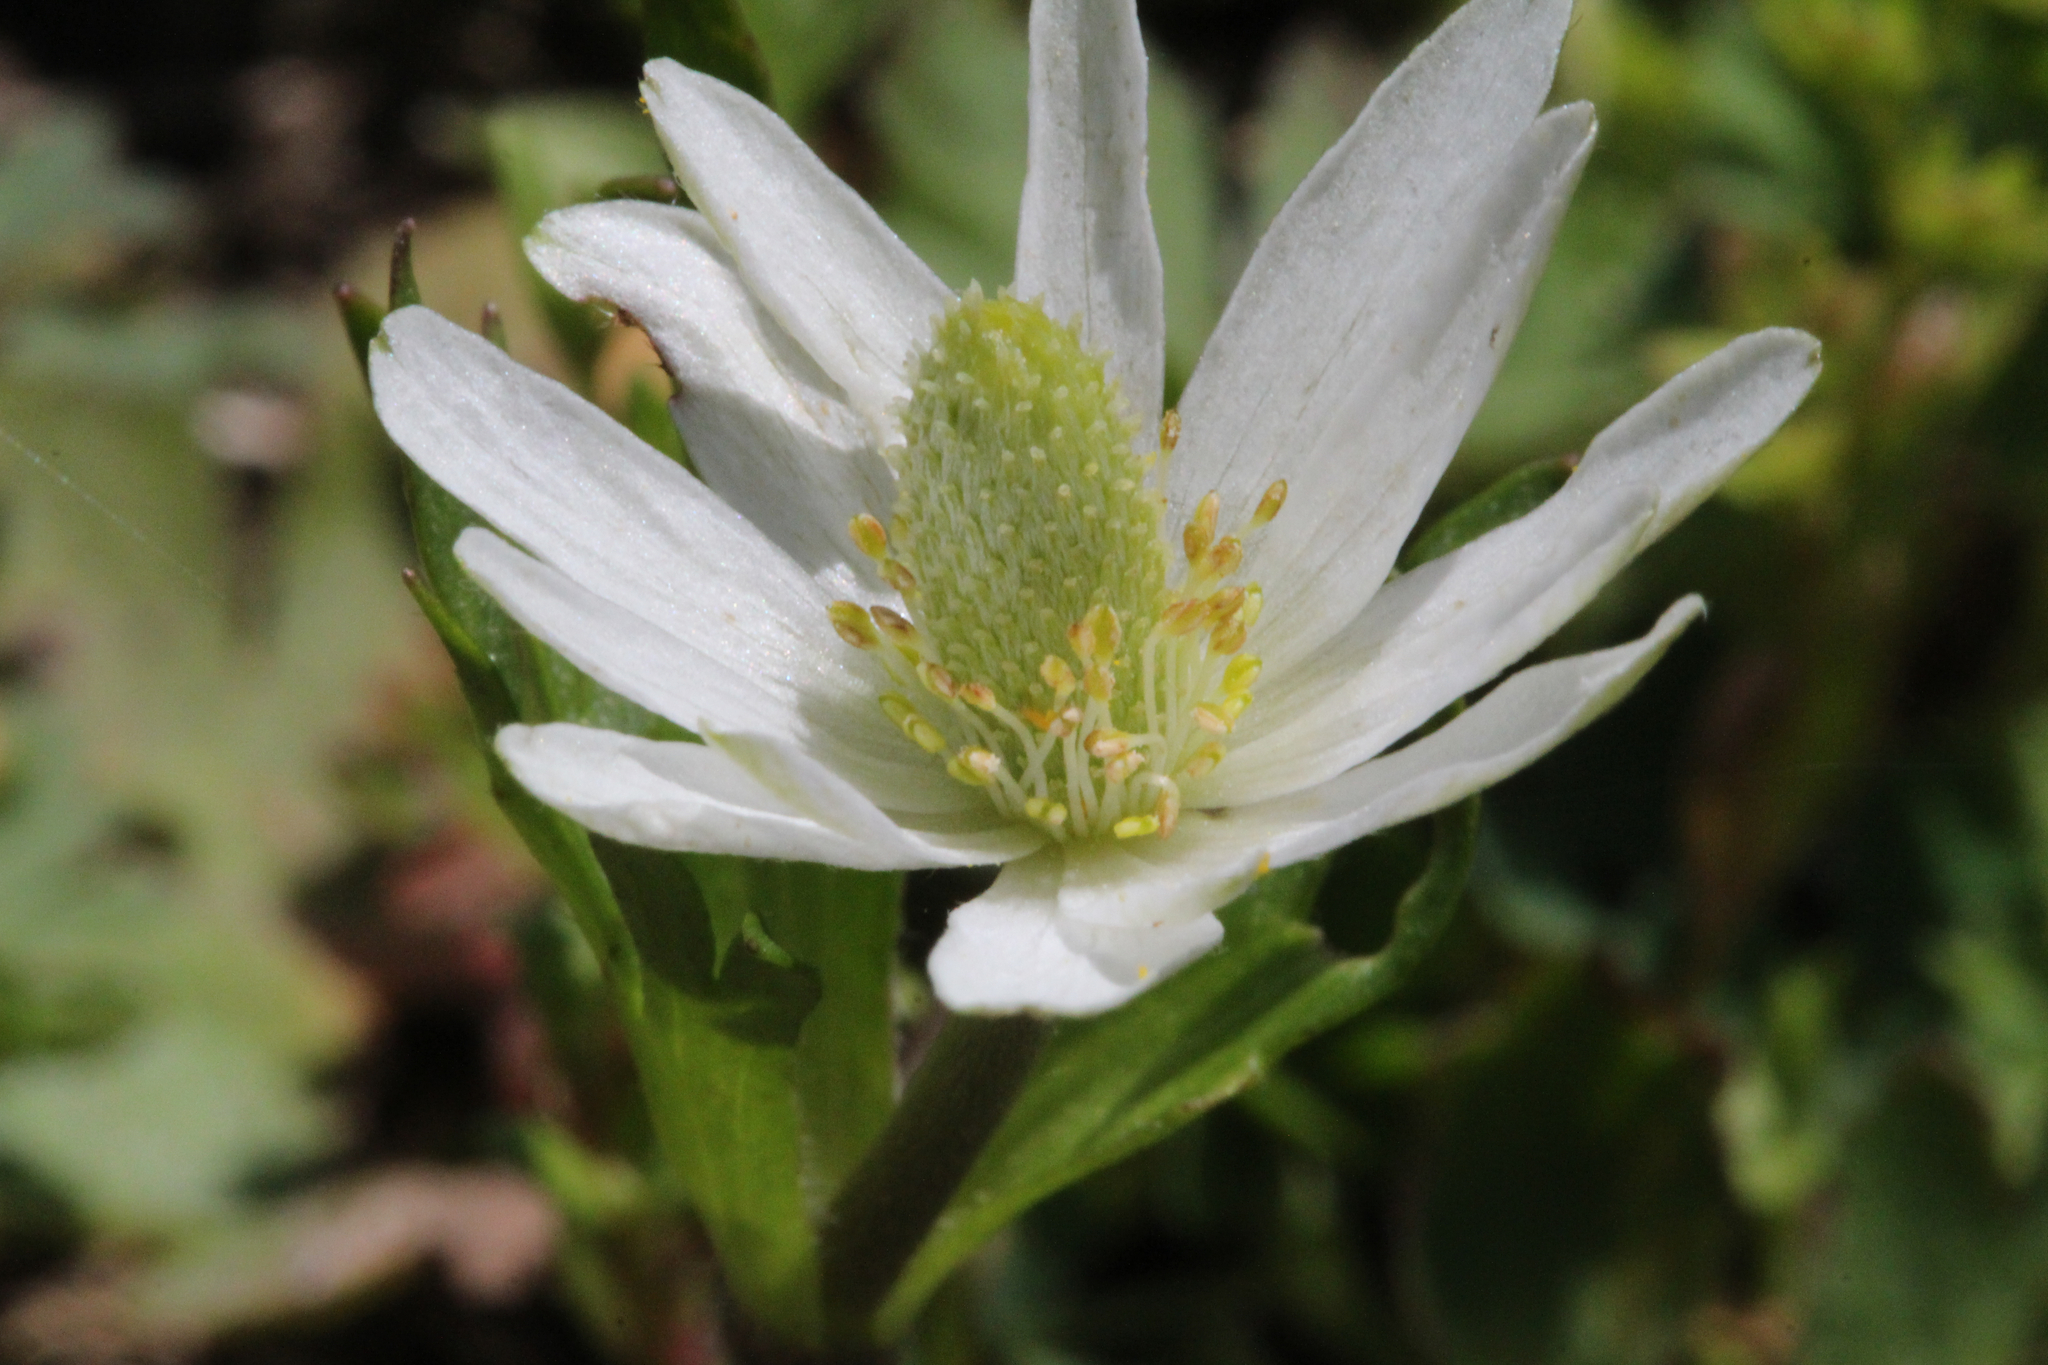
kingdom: Plantae
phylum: Tracheophyta
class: Magnoliopsida
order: Ranunculales
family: Ranunculaceae
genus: Anemone
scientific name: Anemone berlandieri
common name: Ten-petal anemone
